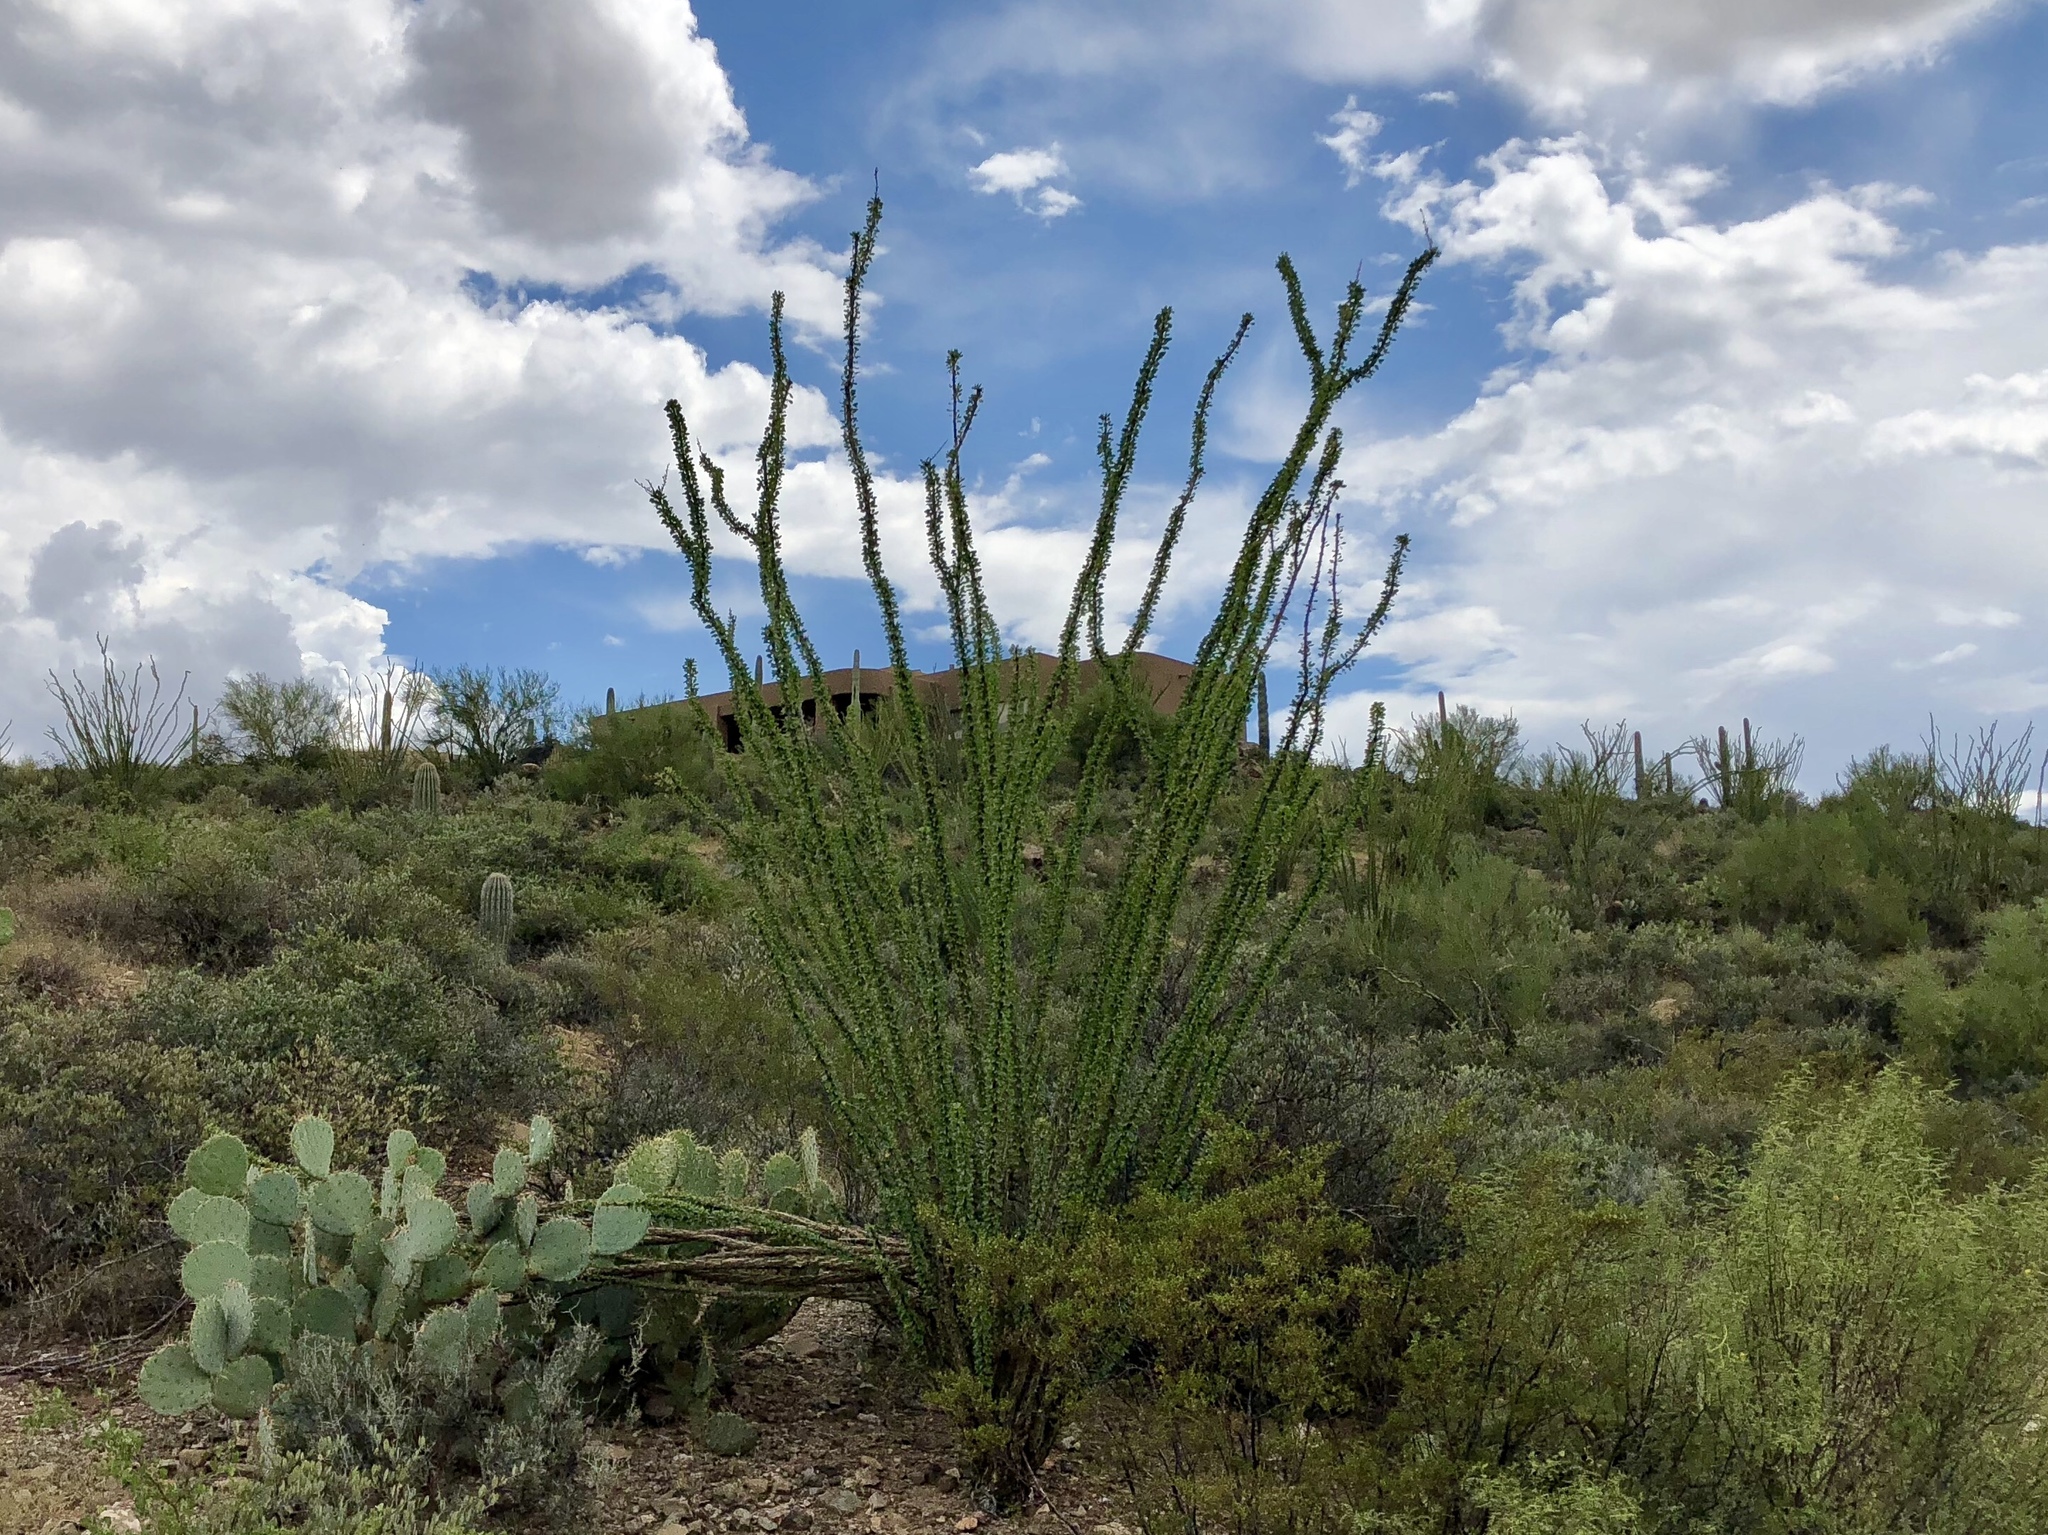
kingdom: Plantae
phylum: Tracheophyta
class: Magnoliopsida
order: Ericales
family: Fouquieriaceae
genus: Fouquieria
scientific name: Fouquieria splendens
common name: Vine-cactus
